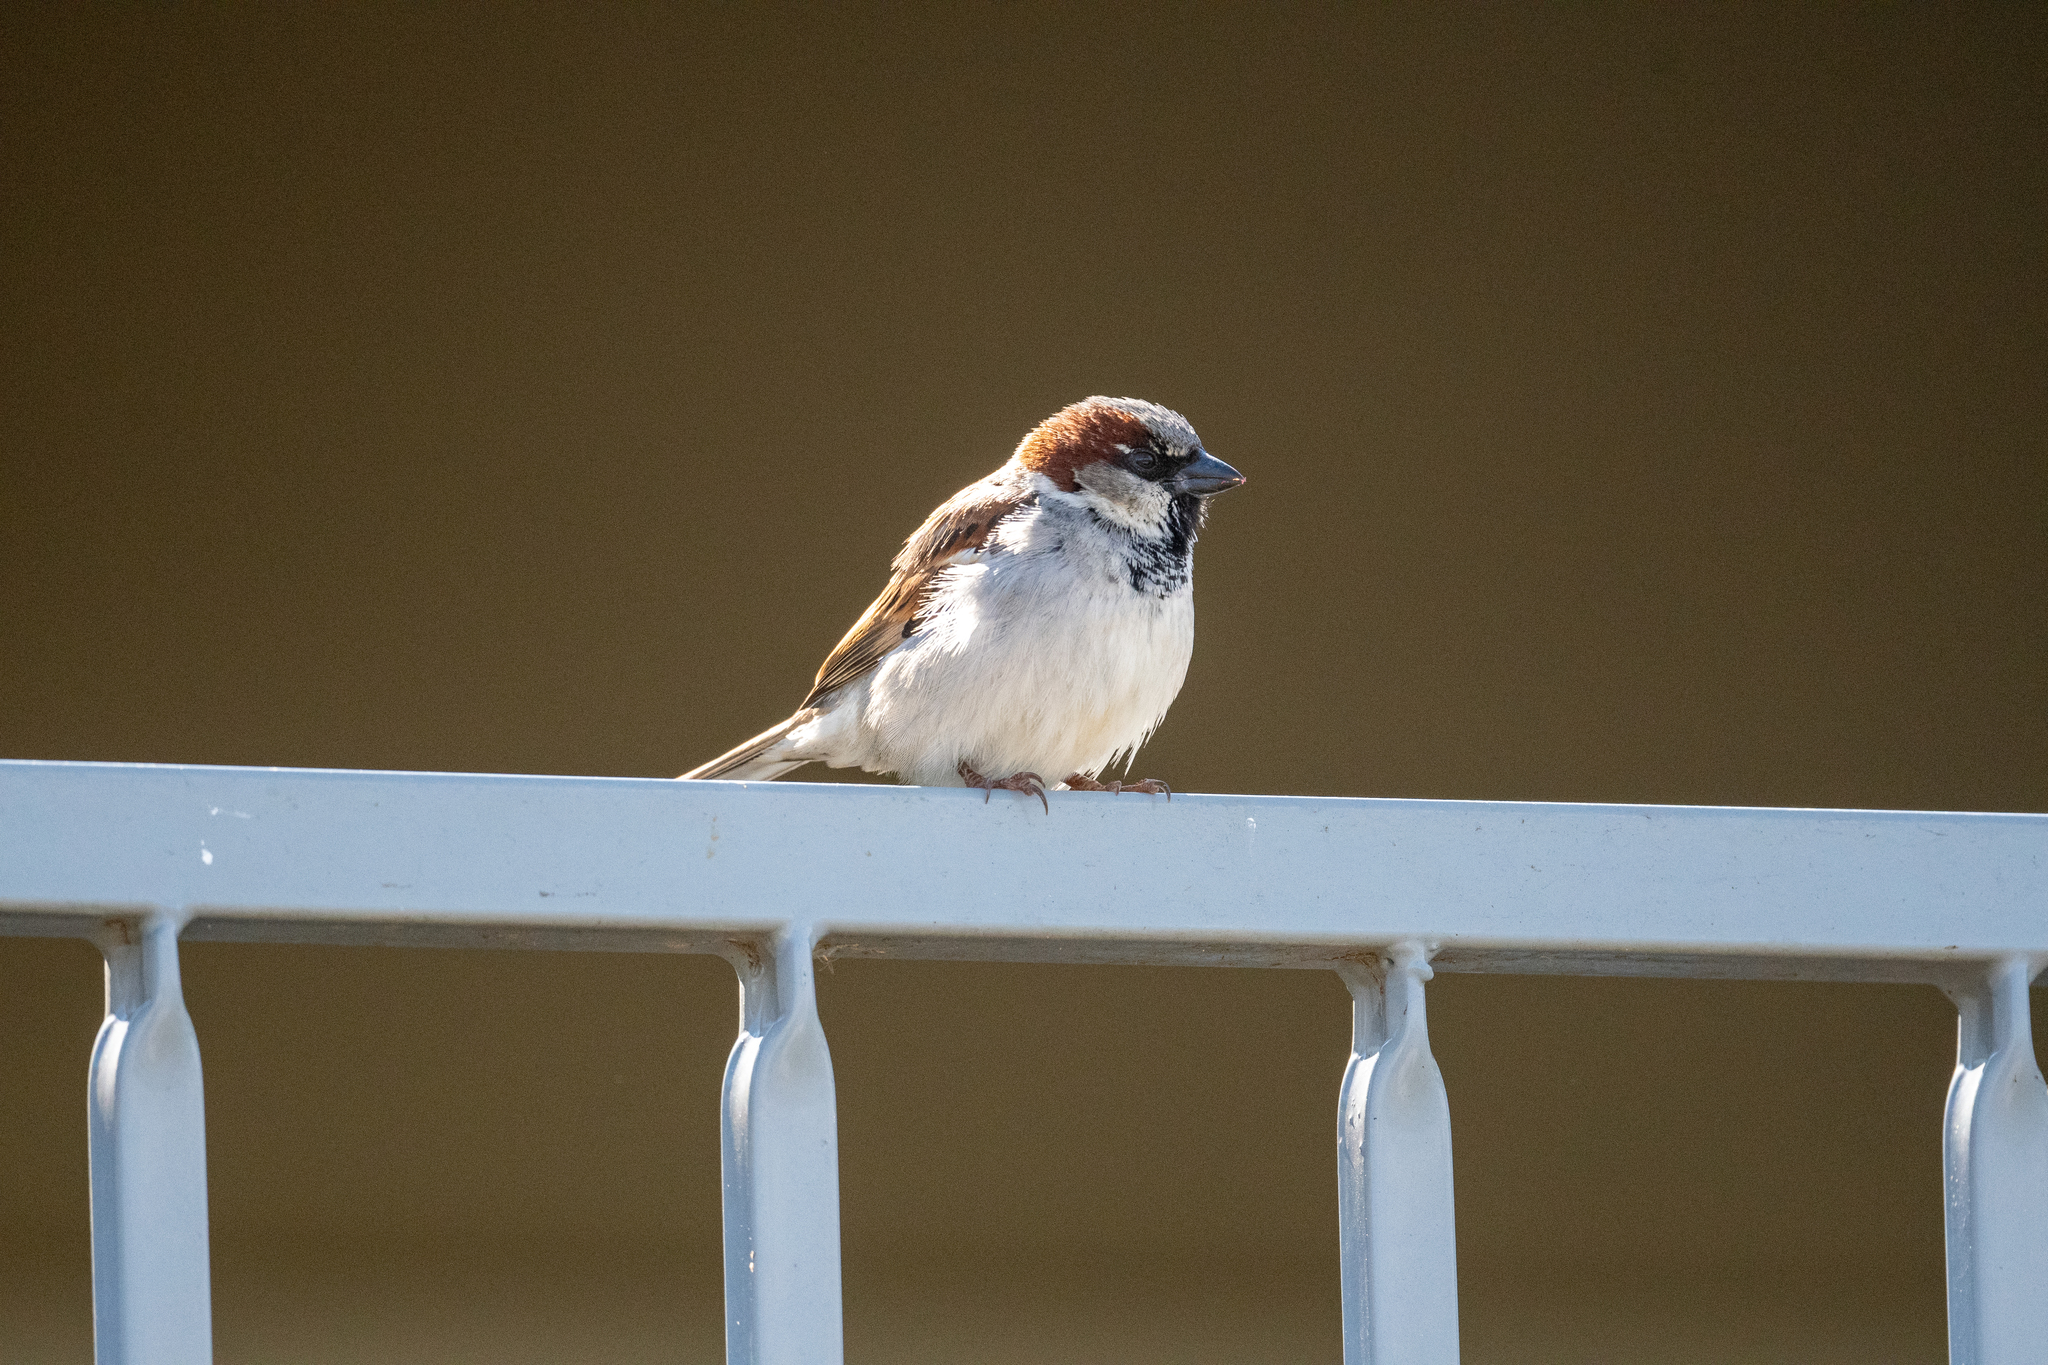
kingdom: Animalia
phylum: Chordata
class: Aves
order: Passeriformes
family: Passeridae
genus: Passer
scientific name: Passer domesticus
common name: House sparrow
